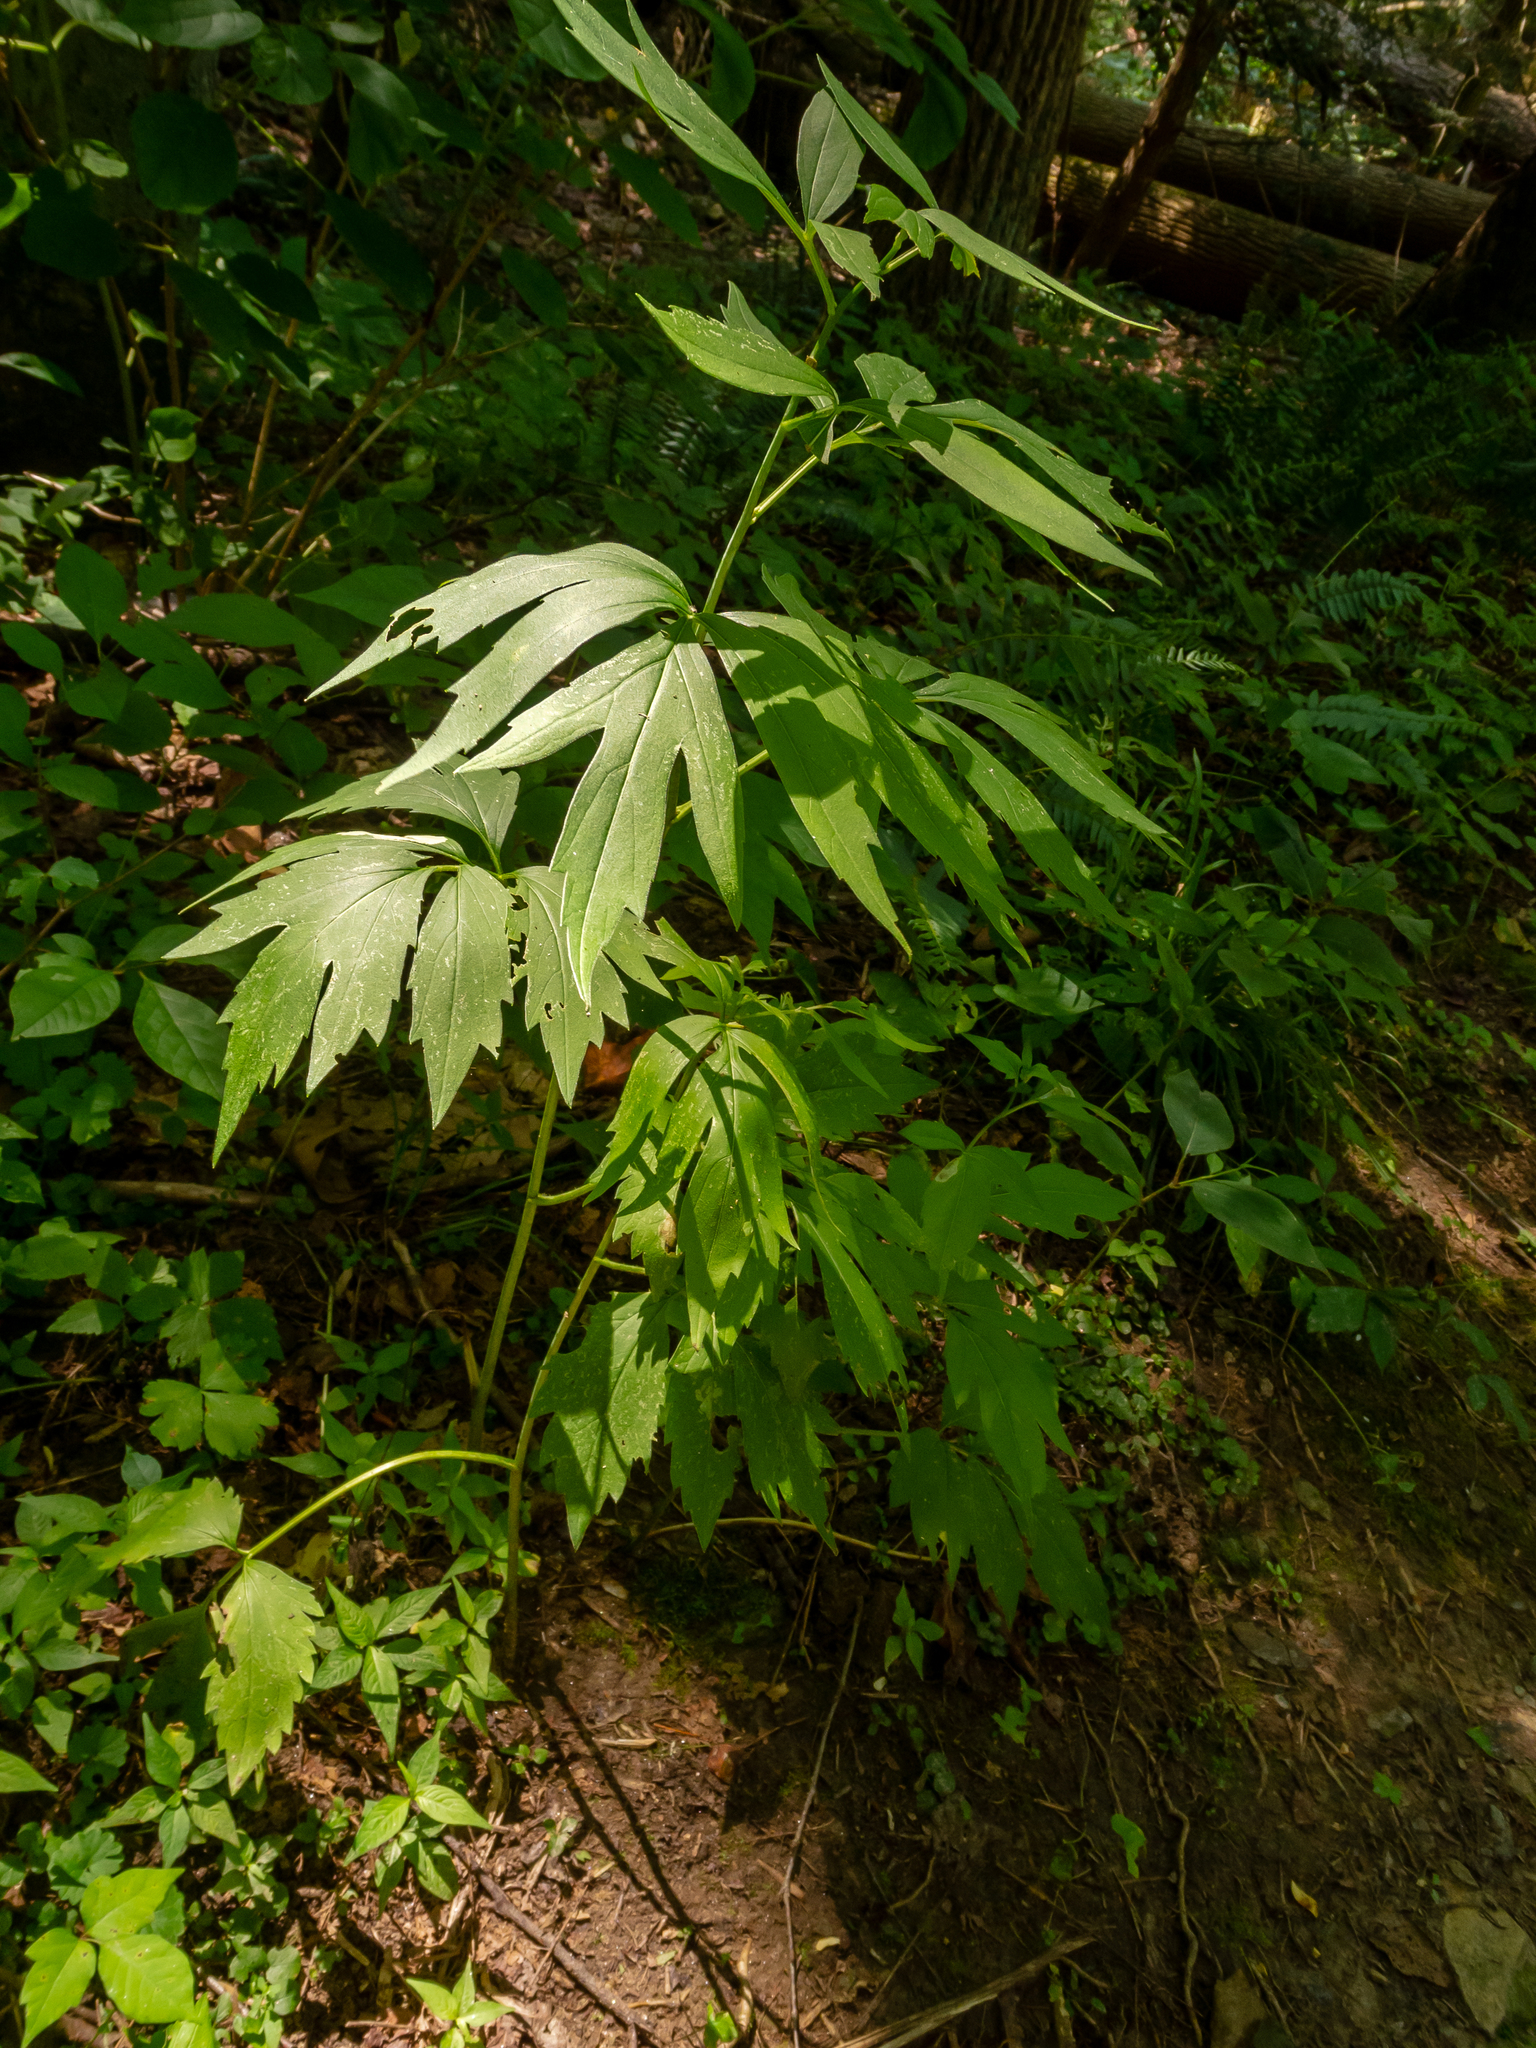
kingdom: Plantae
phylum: Tracheophyta
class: Magnoliopsida
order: Asterales
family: Asteraceae
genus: Rudbeckia
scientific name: Rudbeckia laciniata
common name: Coneflower
